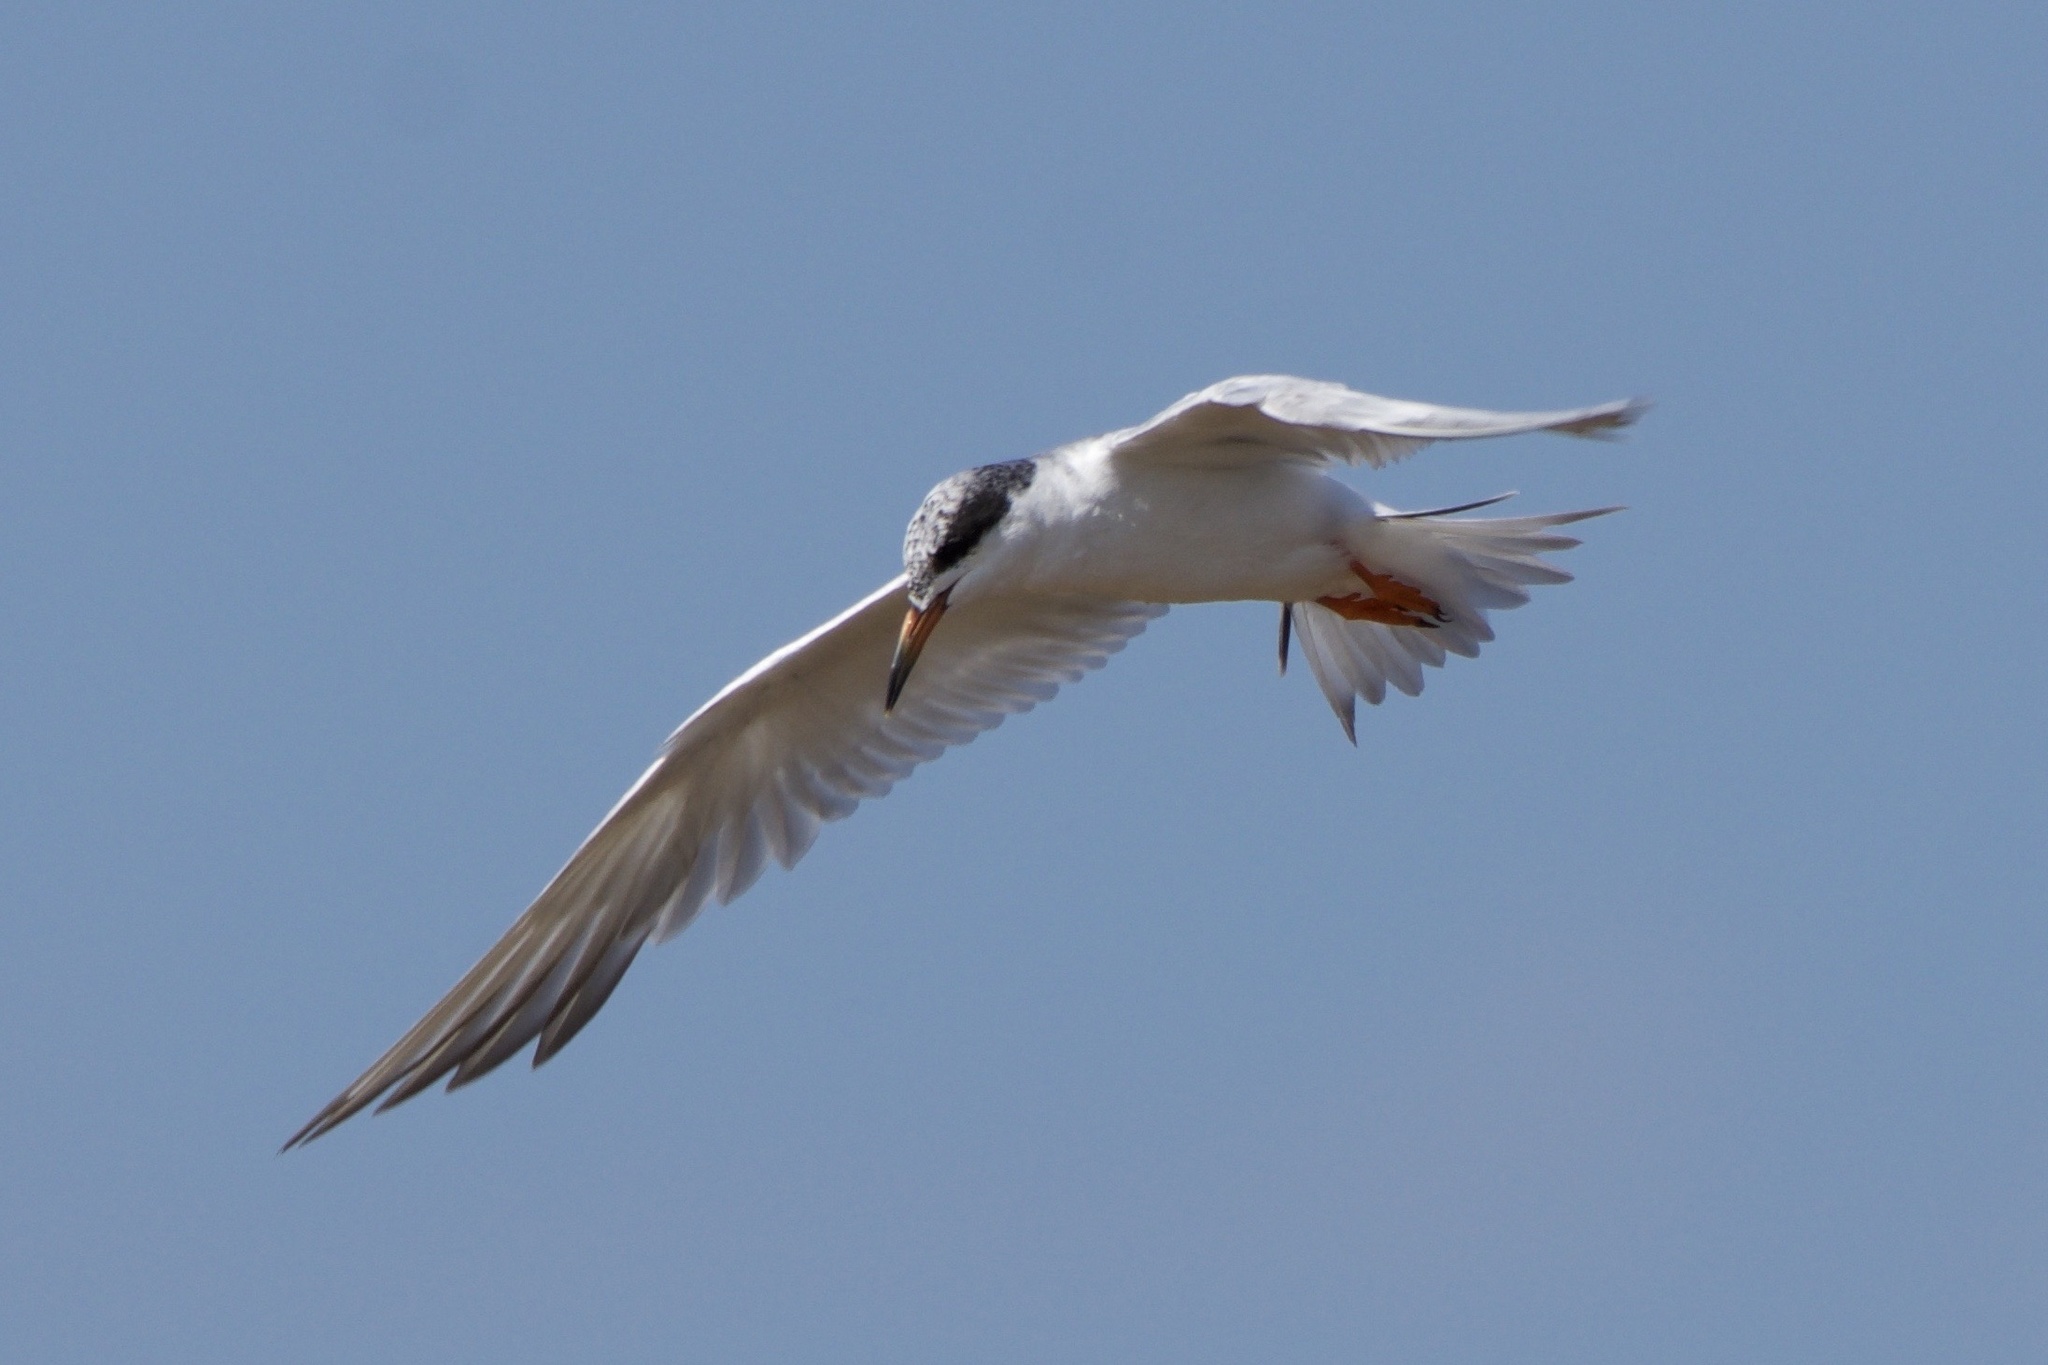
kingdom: Animalia
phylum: Chordata
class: Aves
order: Charadriiformes
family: Laridae
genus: Sterna
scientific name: Sterna forsteri
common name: Forster's tern
